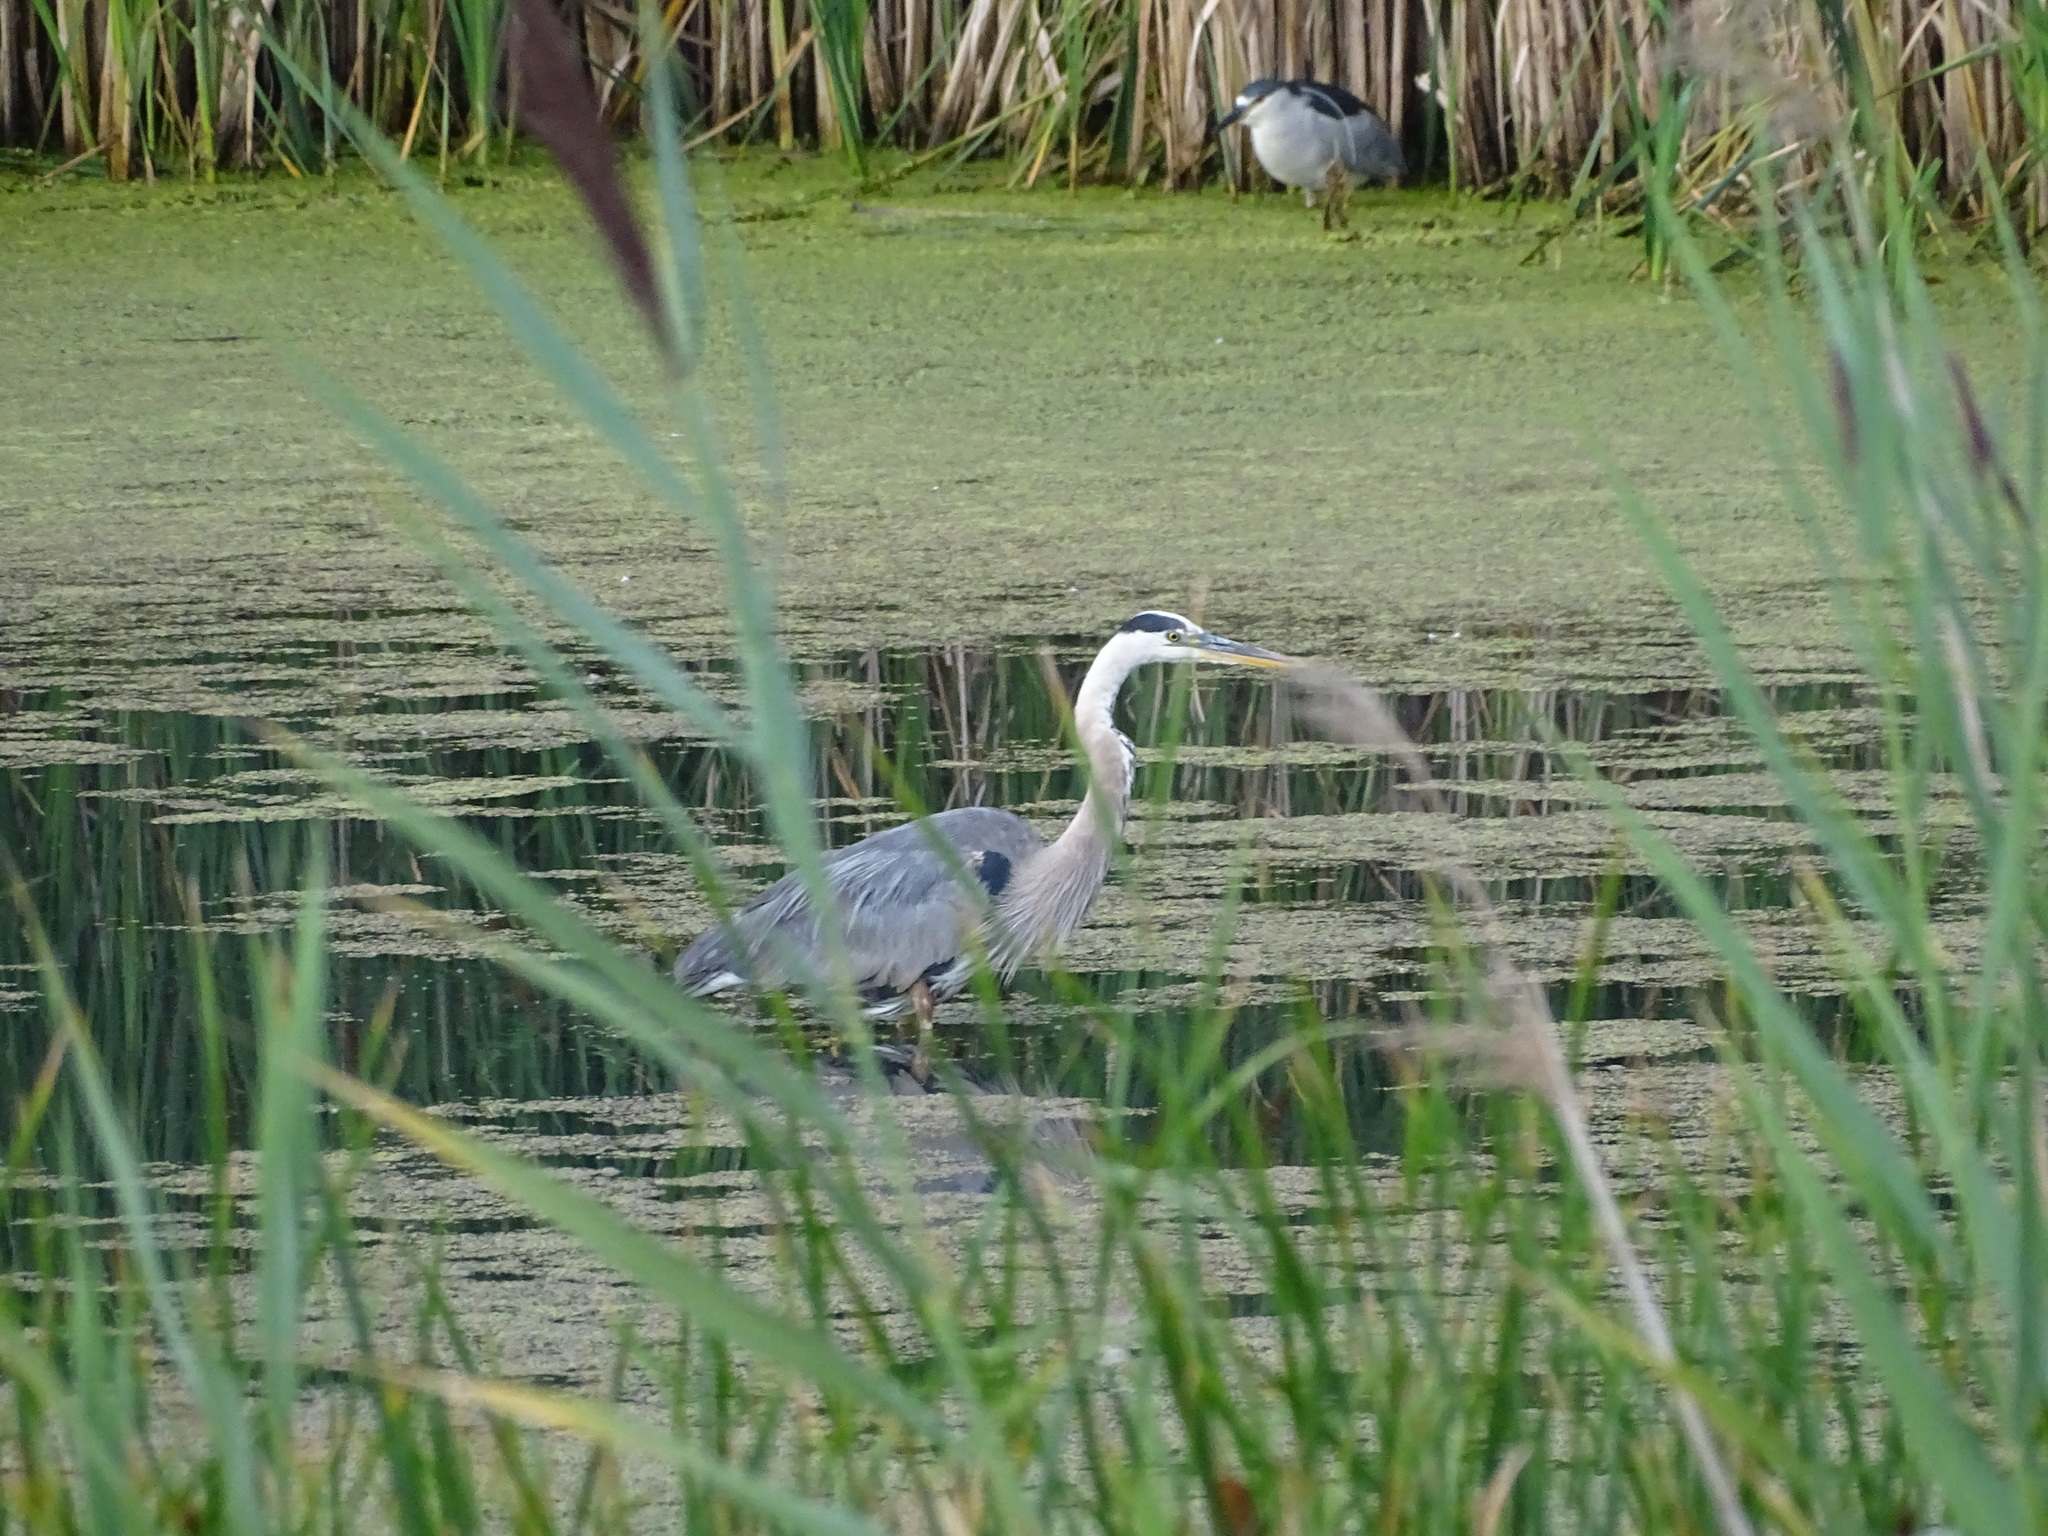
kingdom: Animalia
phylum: Chordata
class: Aves
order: Pelecaniformes
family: Ardeidae
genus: Ardea
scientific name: Ardea herodias
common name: Great blue heron
